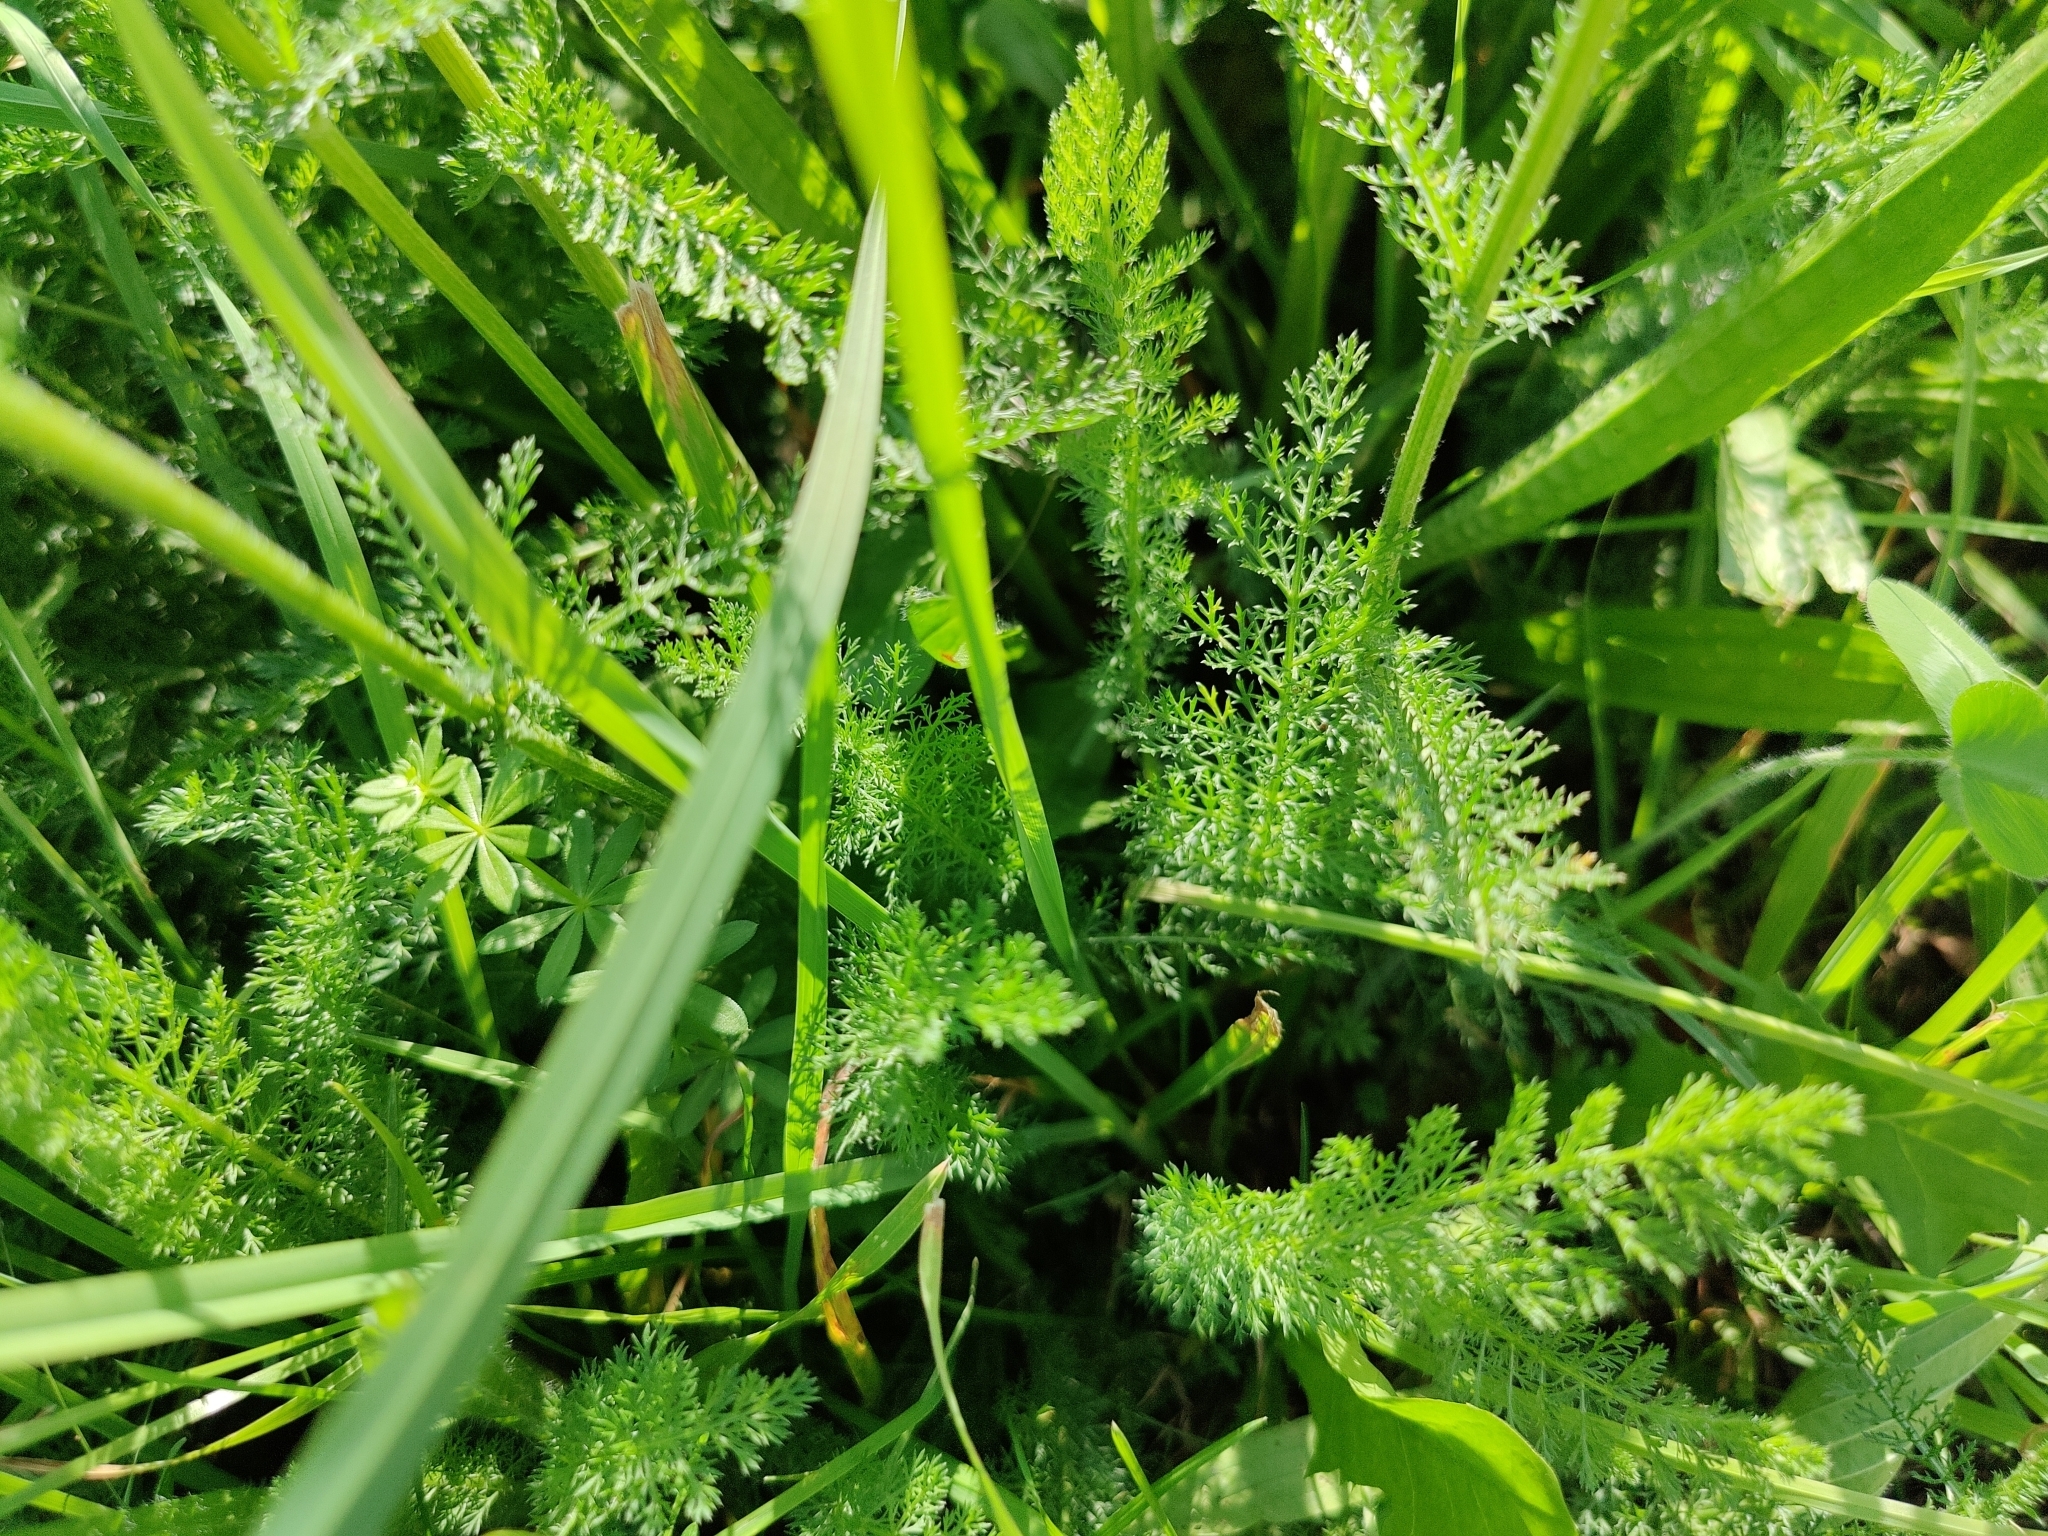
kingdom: Plantae
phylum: Tracheophyta
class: Magnoliopsida
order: Asterales
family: Asteraceae
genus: Achillea
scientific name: Achillea millefolium
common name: Yarrow
